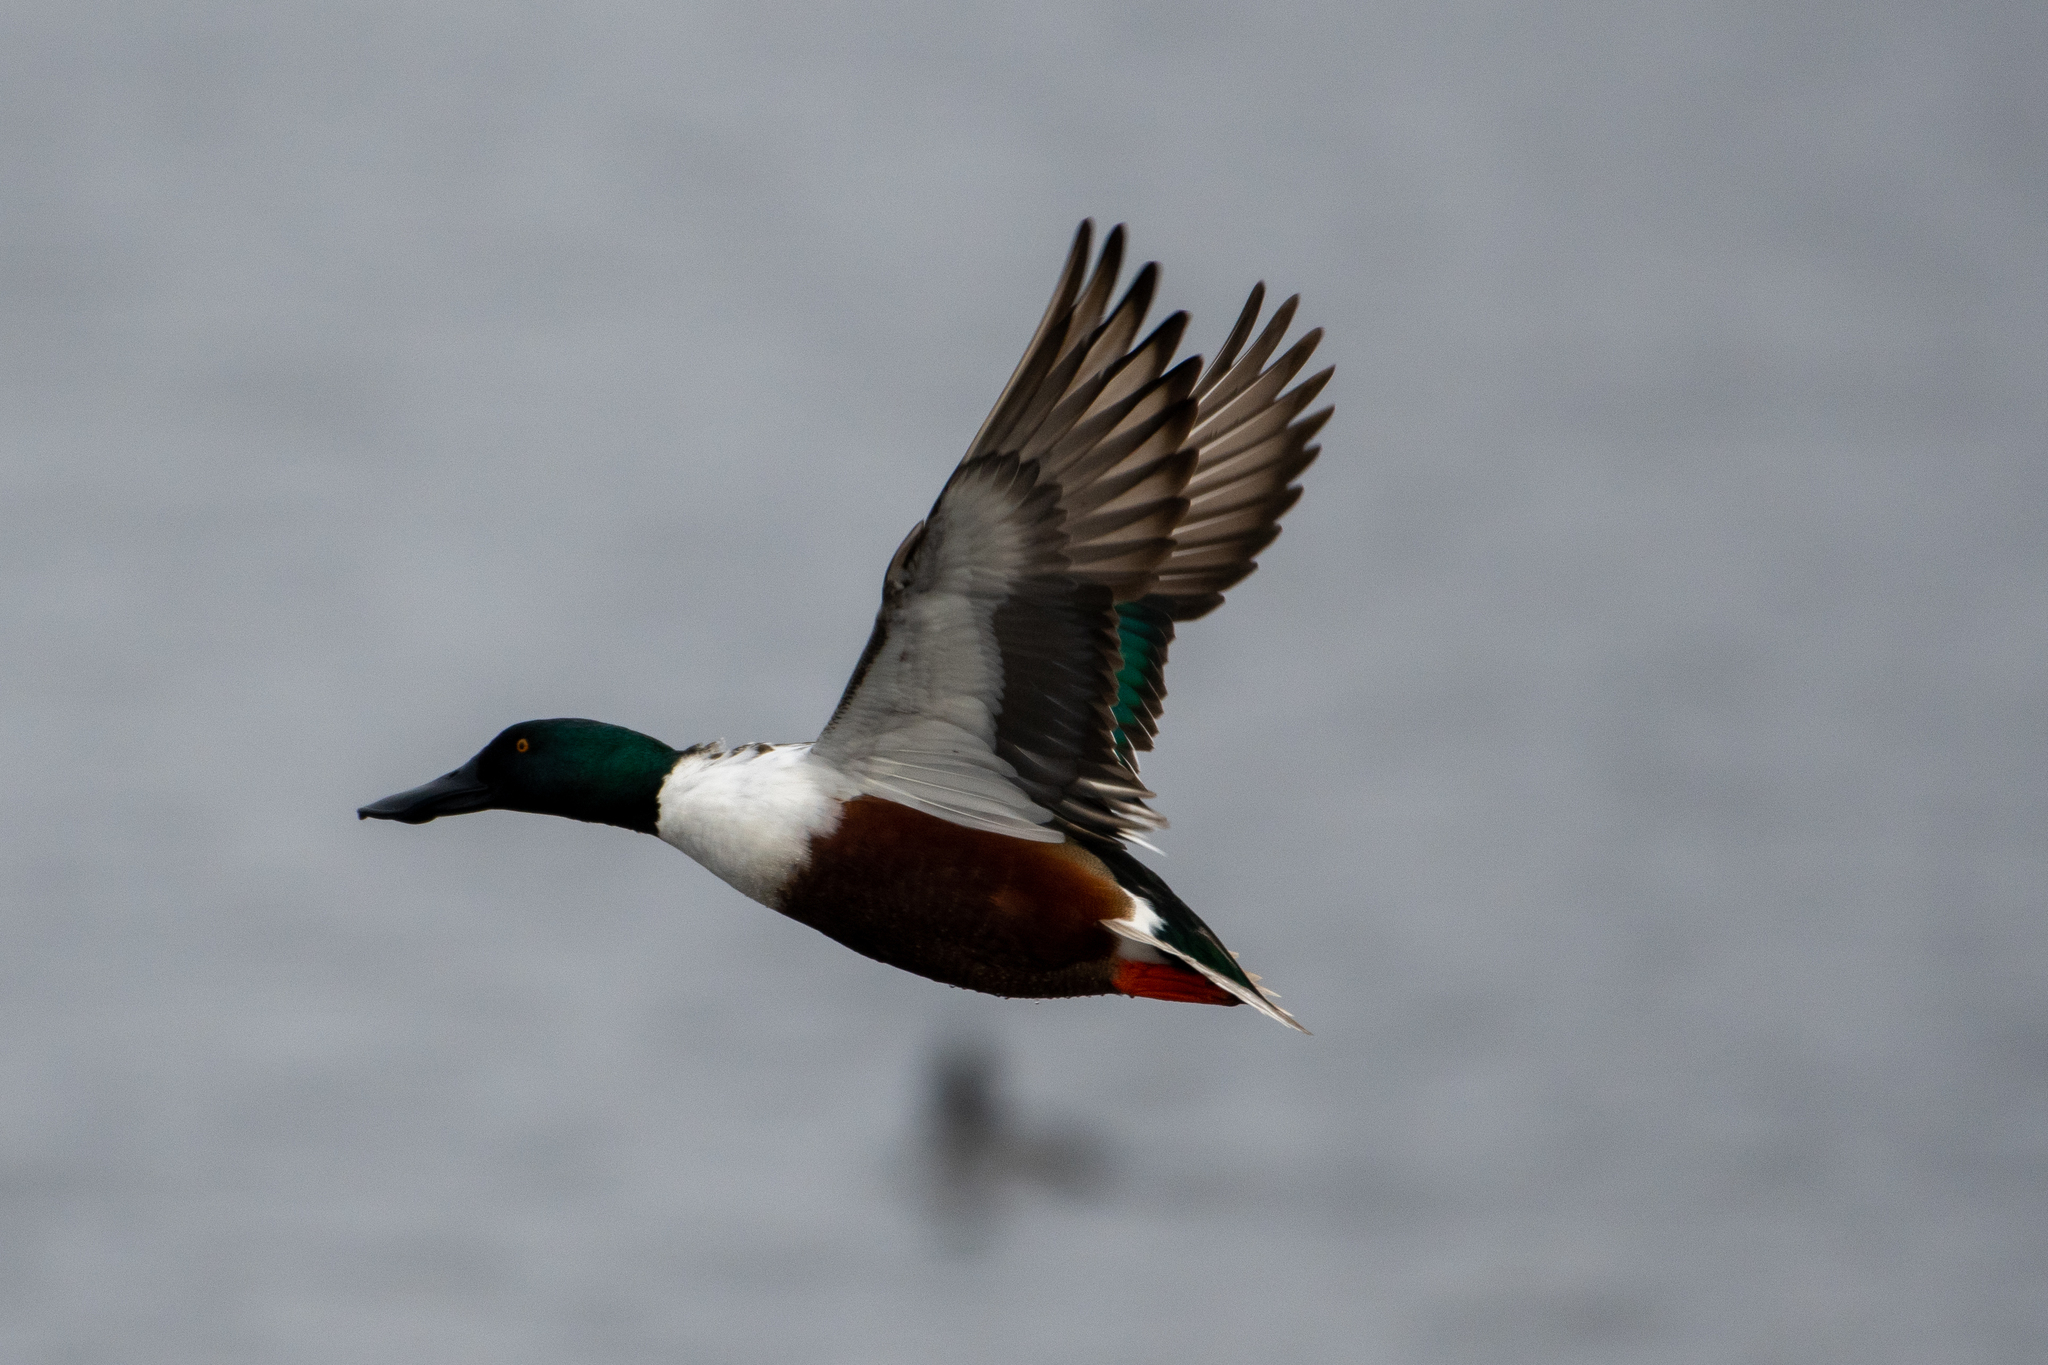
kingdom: Animalia
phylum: Chordata
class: Aves
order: Anseriformes
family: Anatidae
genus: Spatula
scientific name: Spatula clypeata
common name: Northern shoveler
